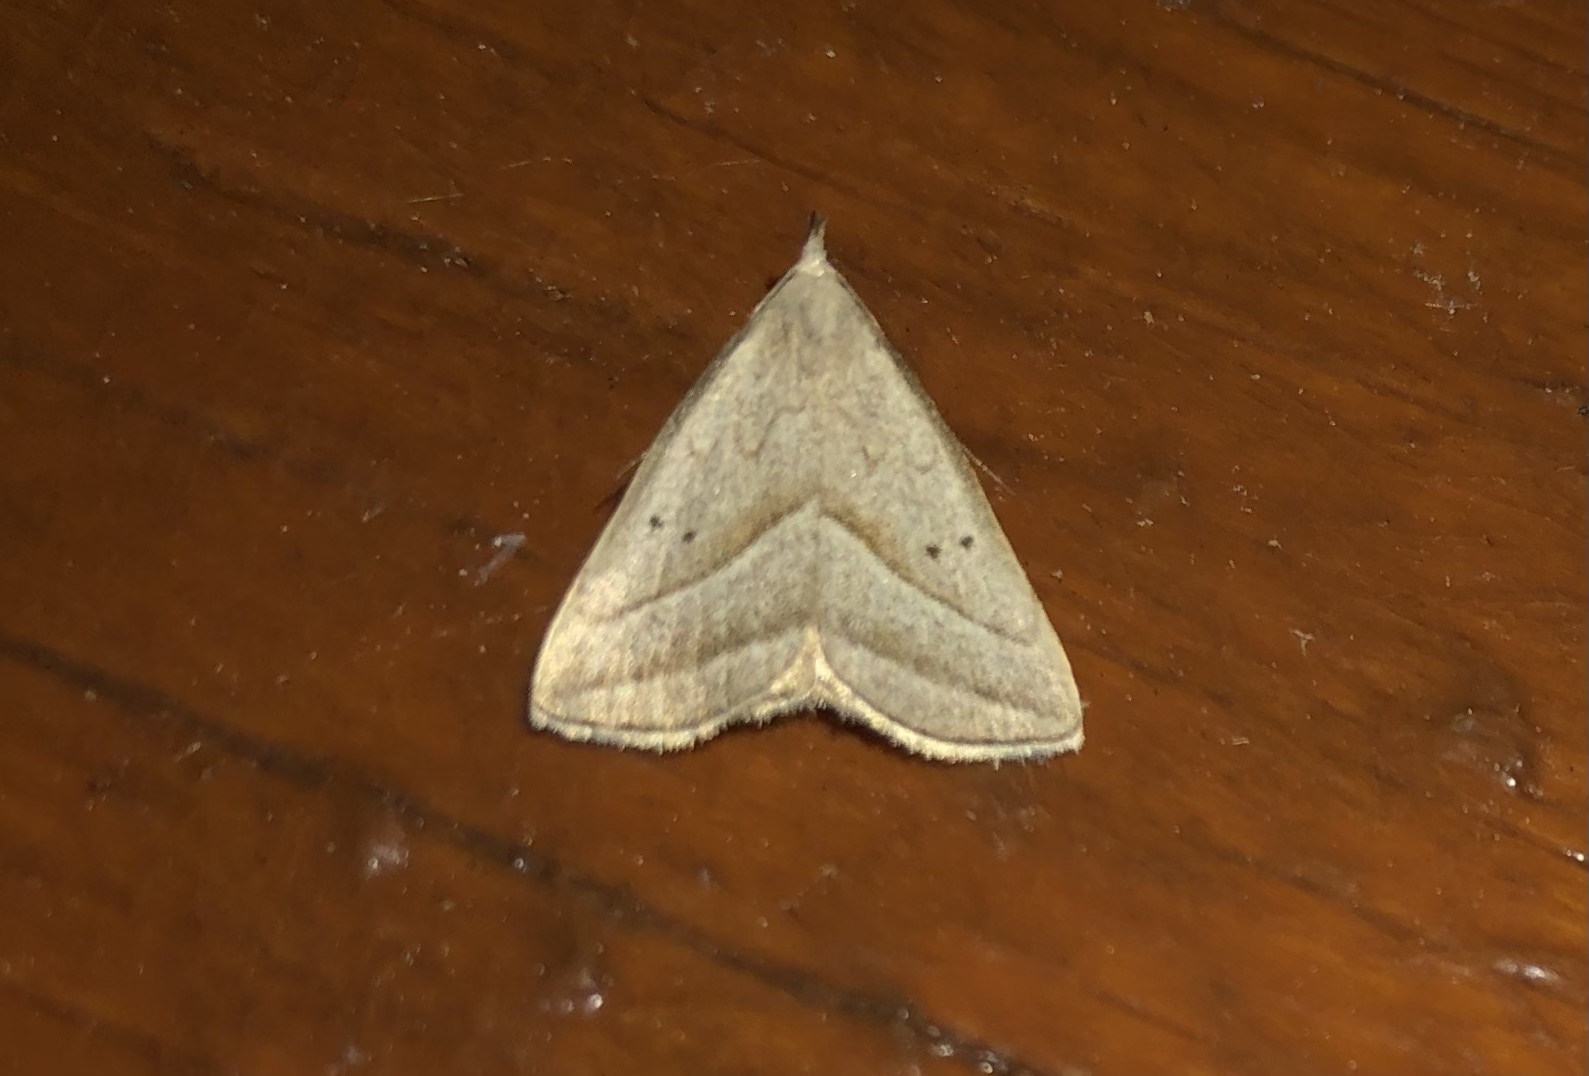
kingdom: Animalia
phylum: Arthropoda
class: Insecta
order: Lepidoptera
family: Erebidae
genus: Macrochilo
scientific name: Macrochilo absorptalis
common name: Slant-lined owlet
